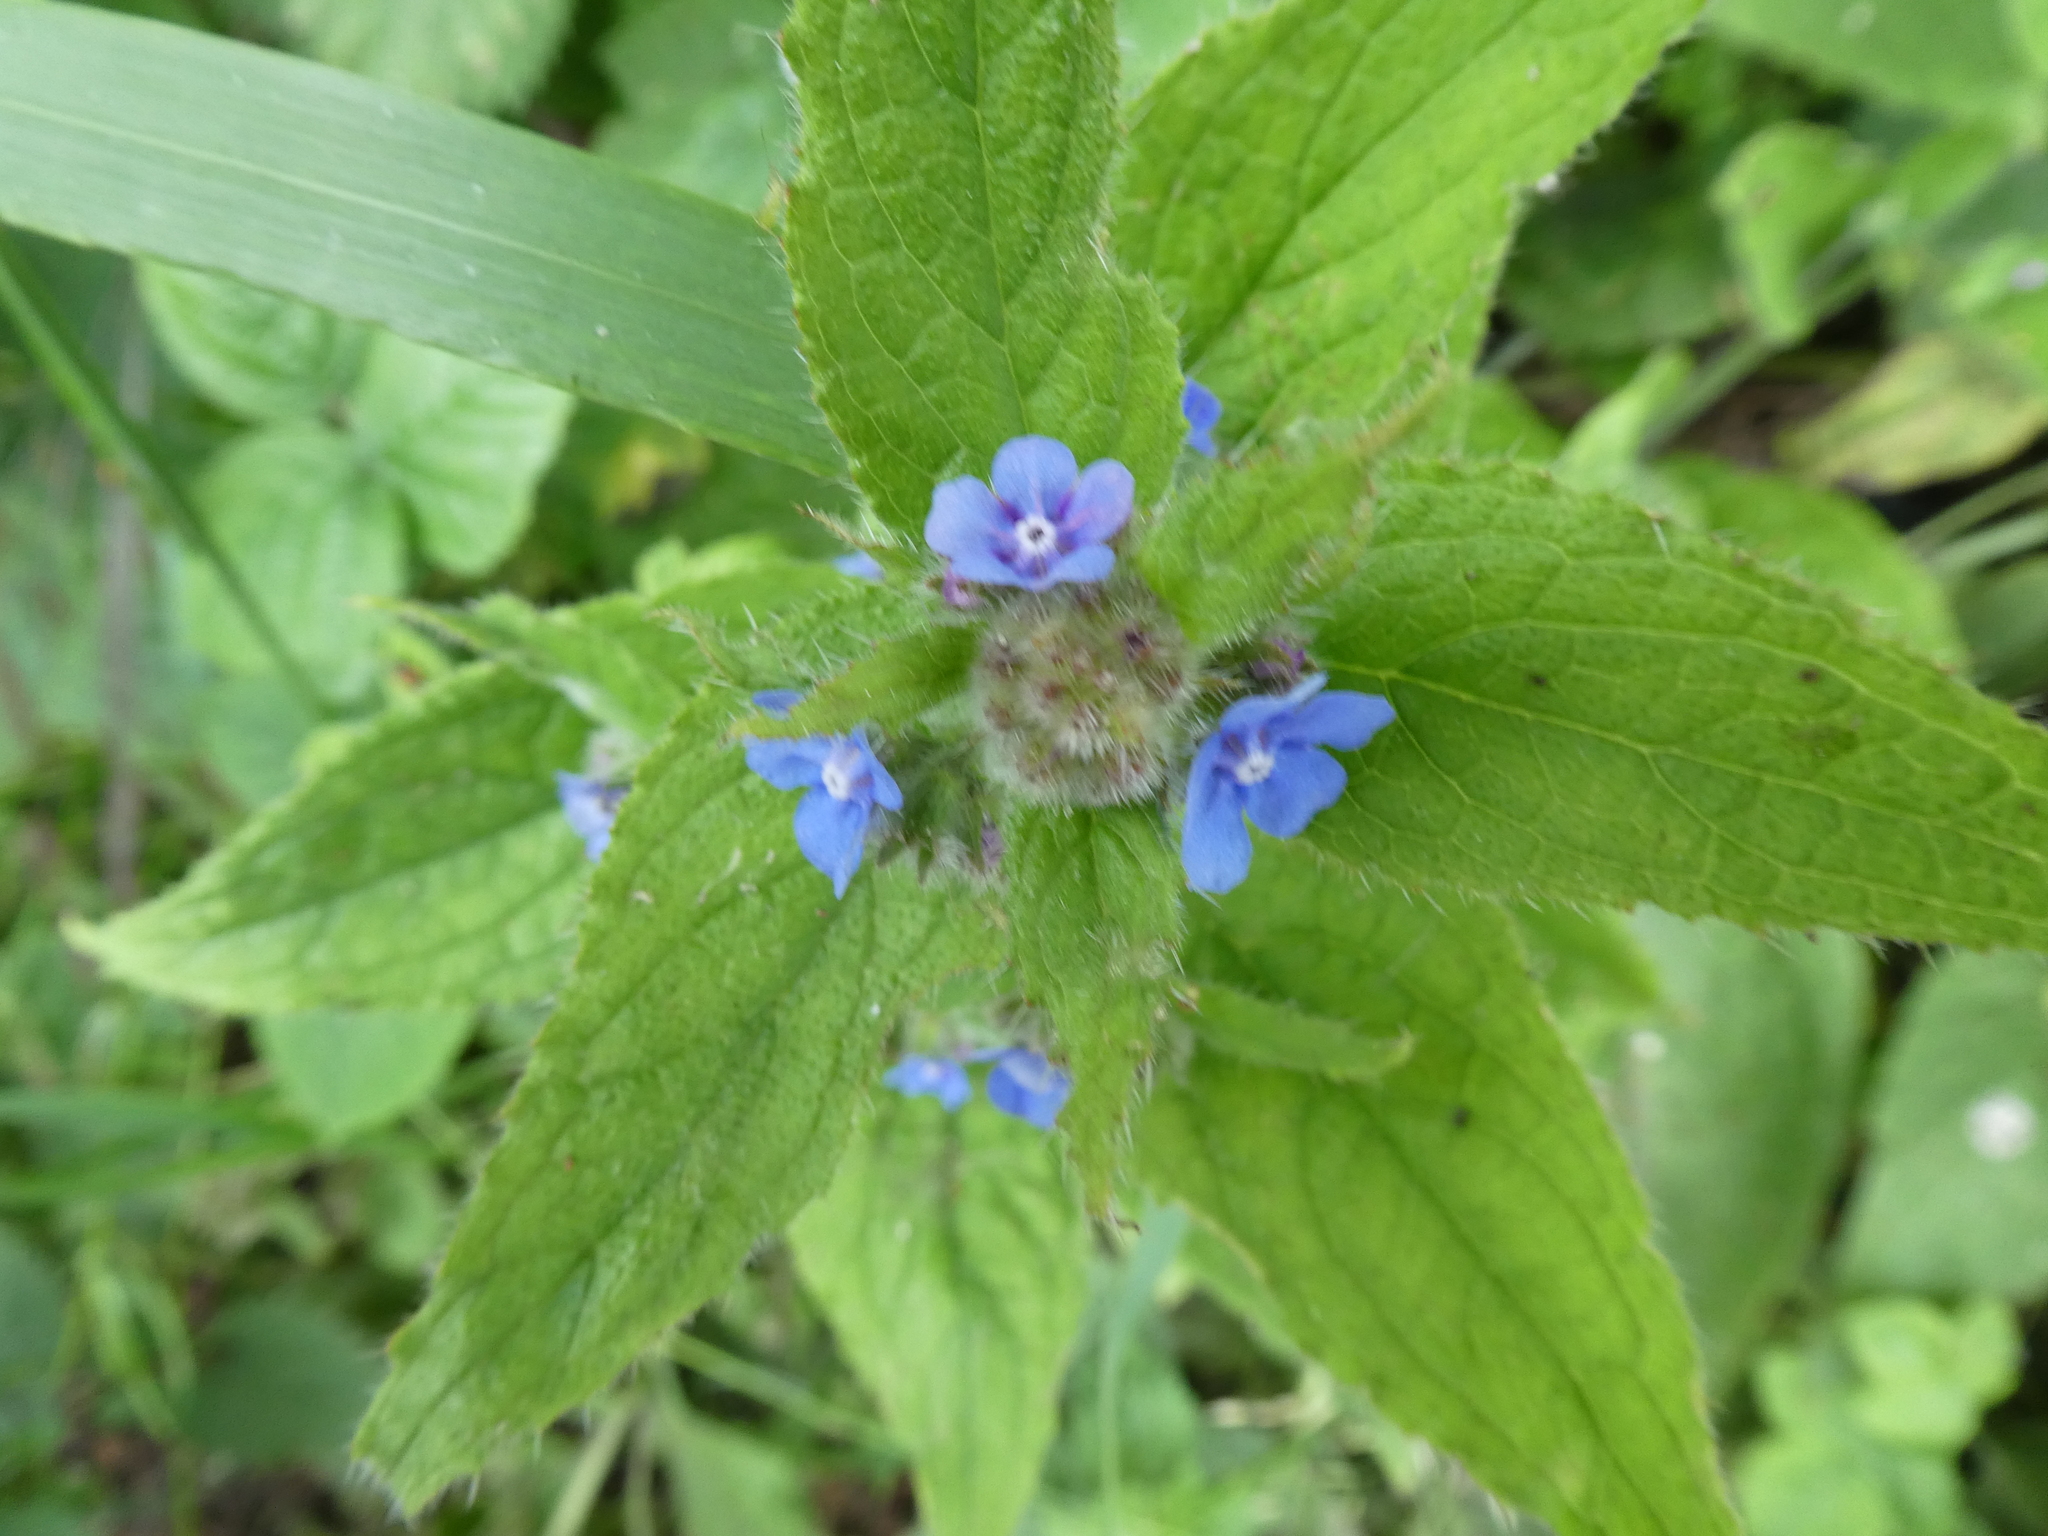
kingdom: Plantae
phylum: Tracheophyta
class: Magnoliopsida
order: Boraginales
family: Boraginaceae
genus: Pentaglottis
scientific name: Pentaglottis sempervirens
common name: Green alkanet
